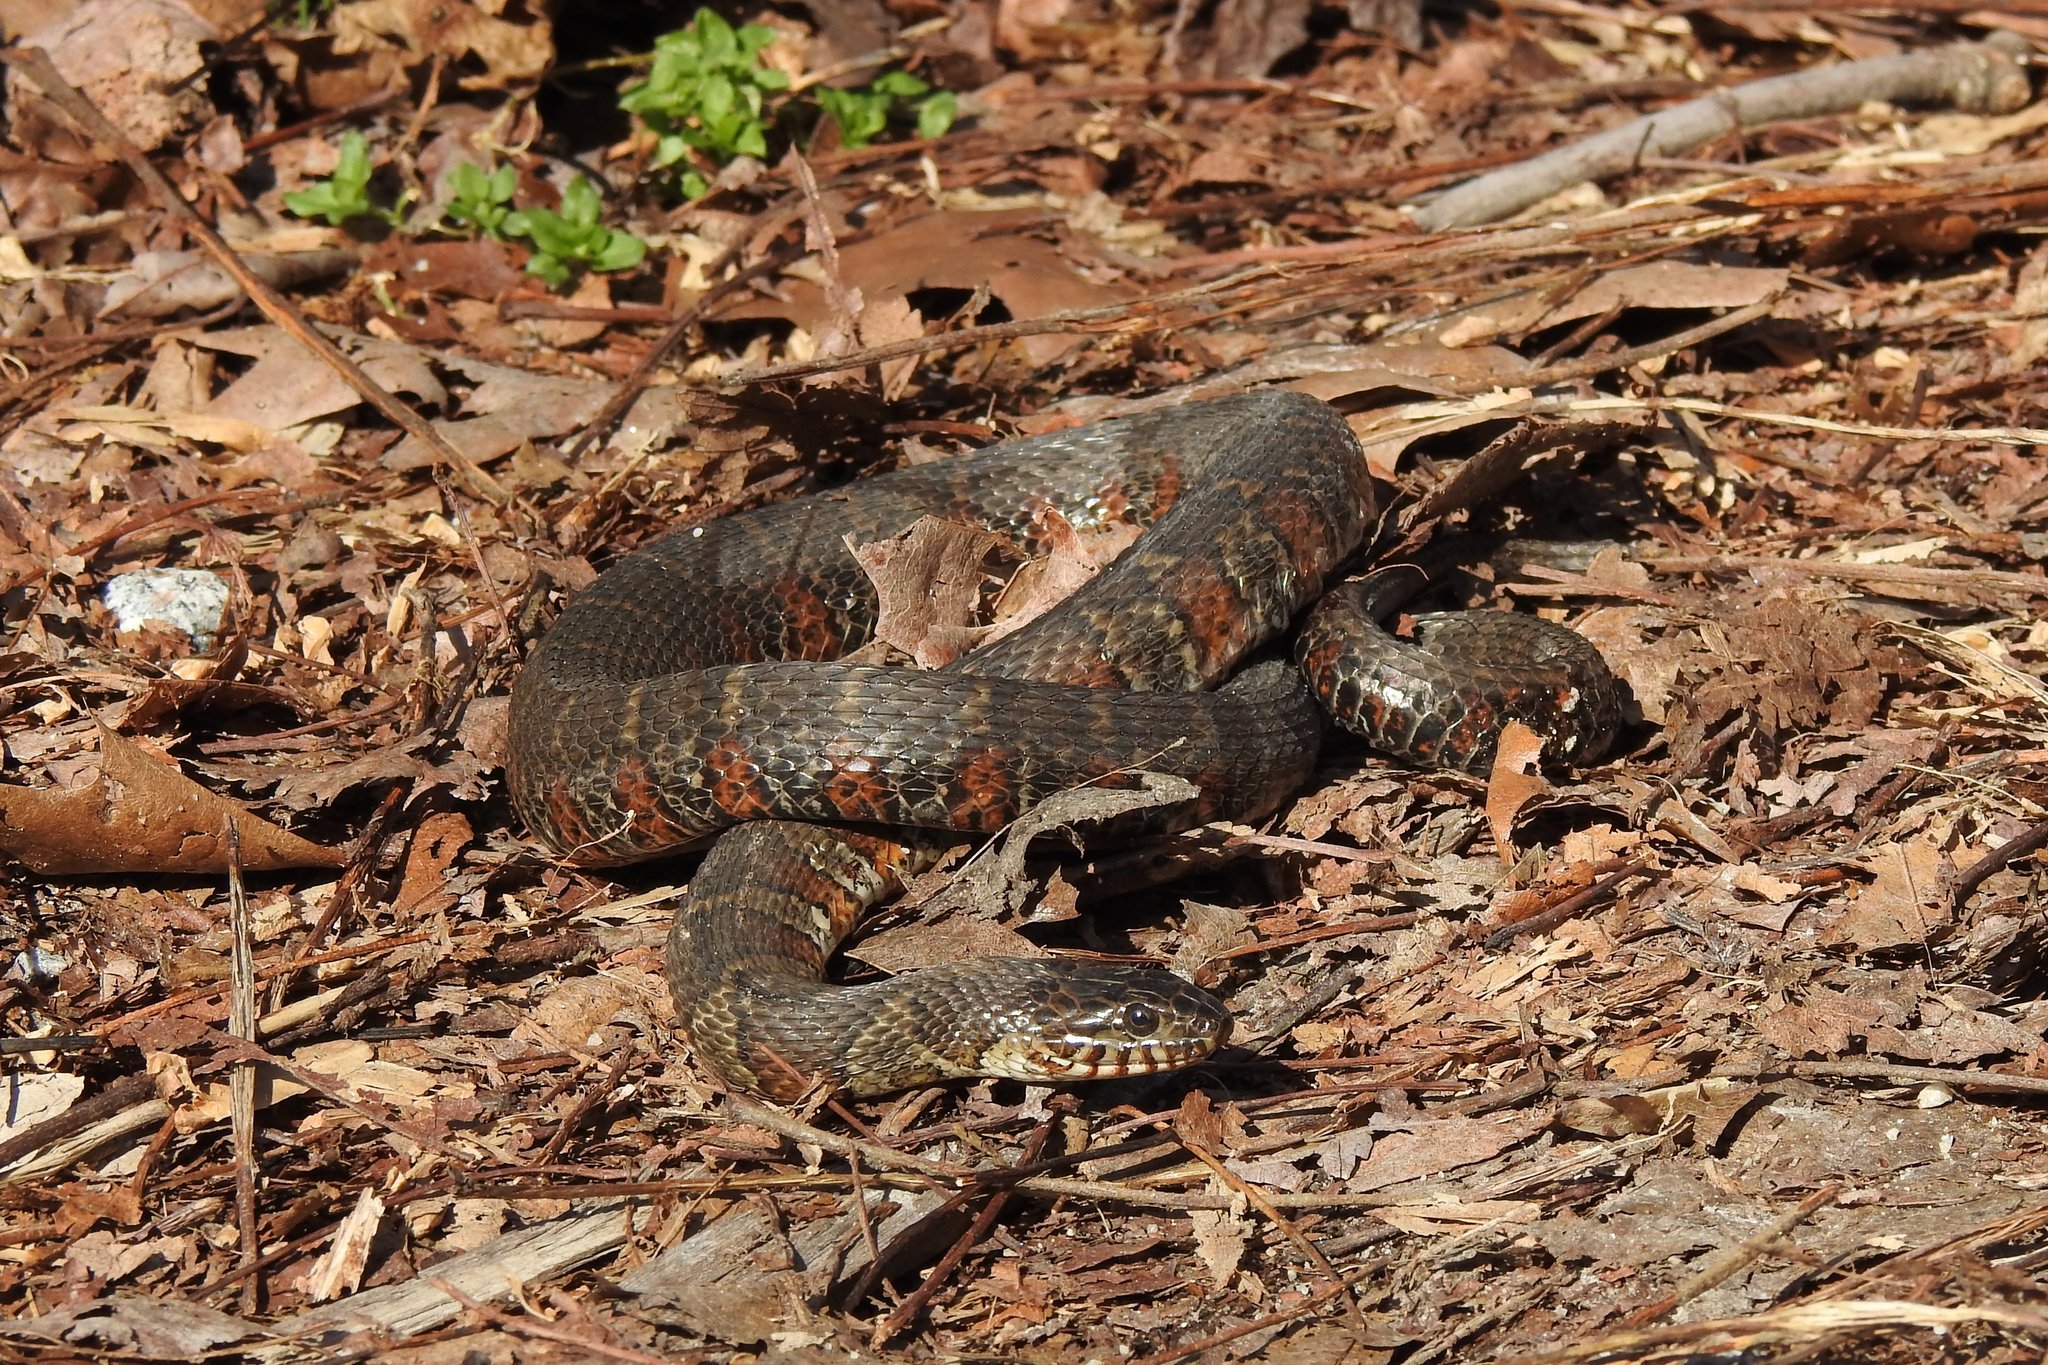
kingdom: Animalia
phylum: Chordata
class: Squamata
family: Colubridae
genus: Nerodia
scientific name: Nerodia sipedon
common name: Northern water snake
